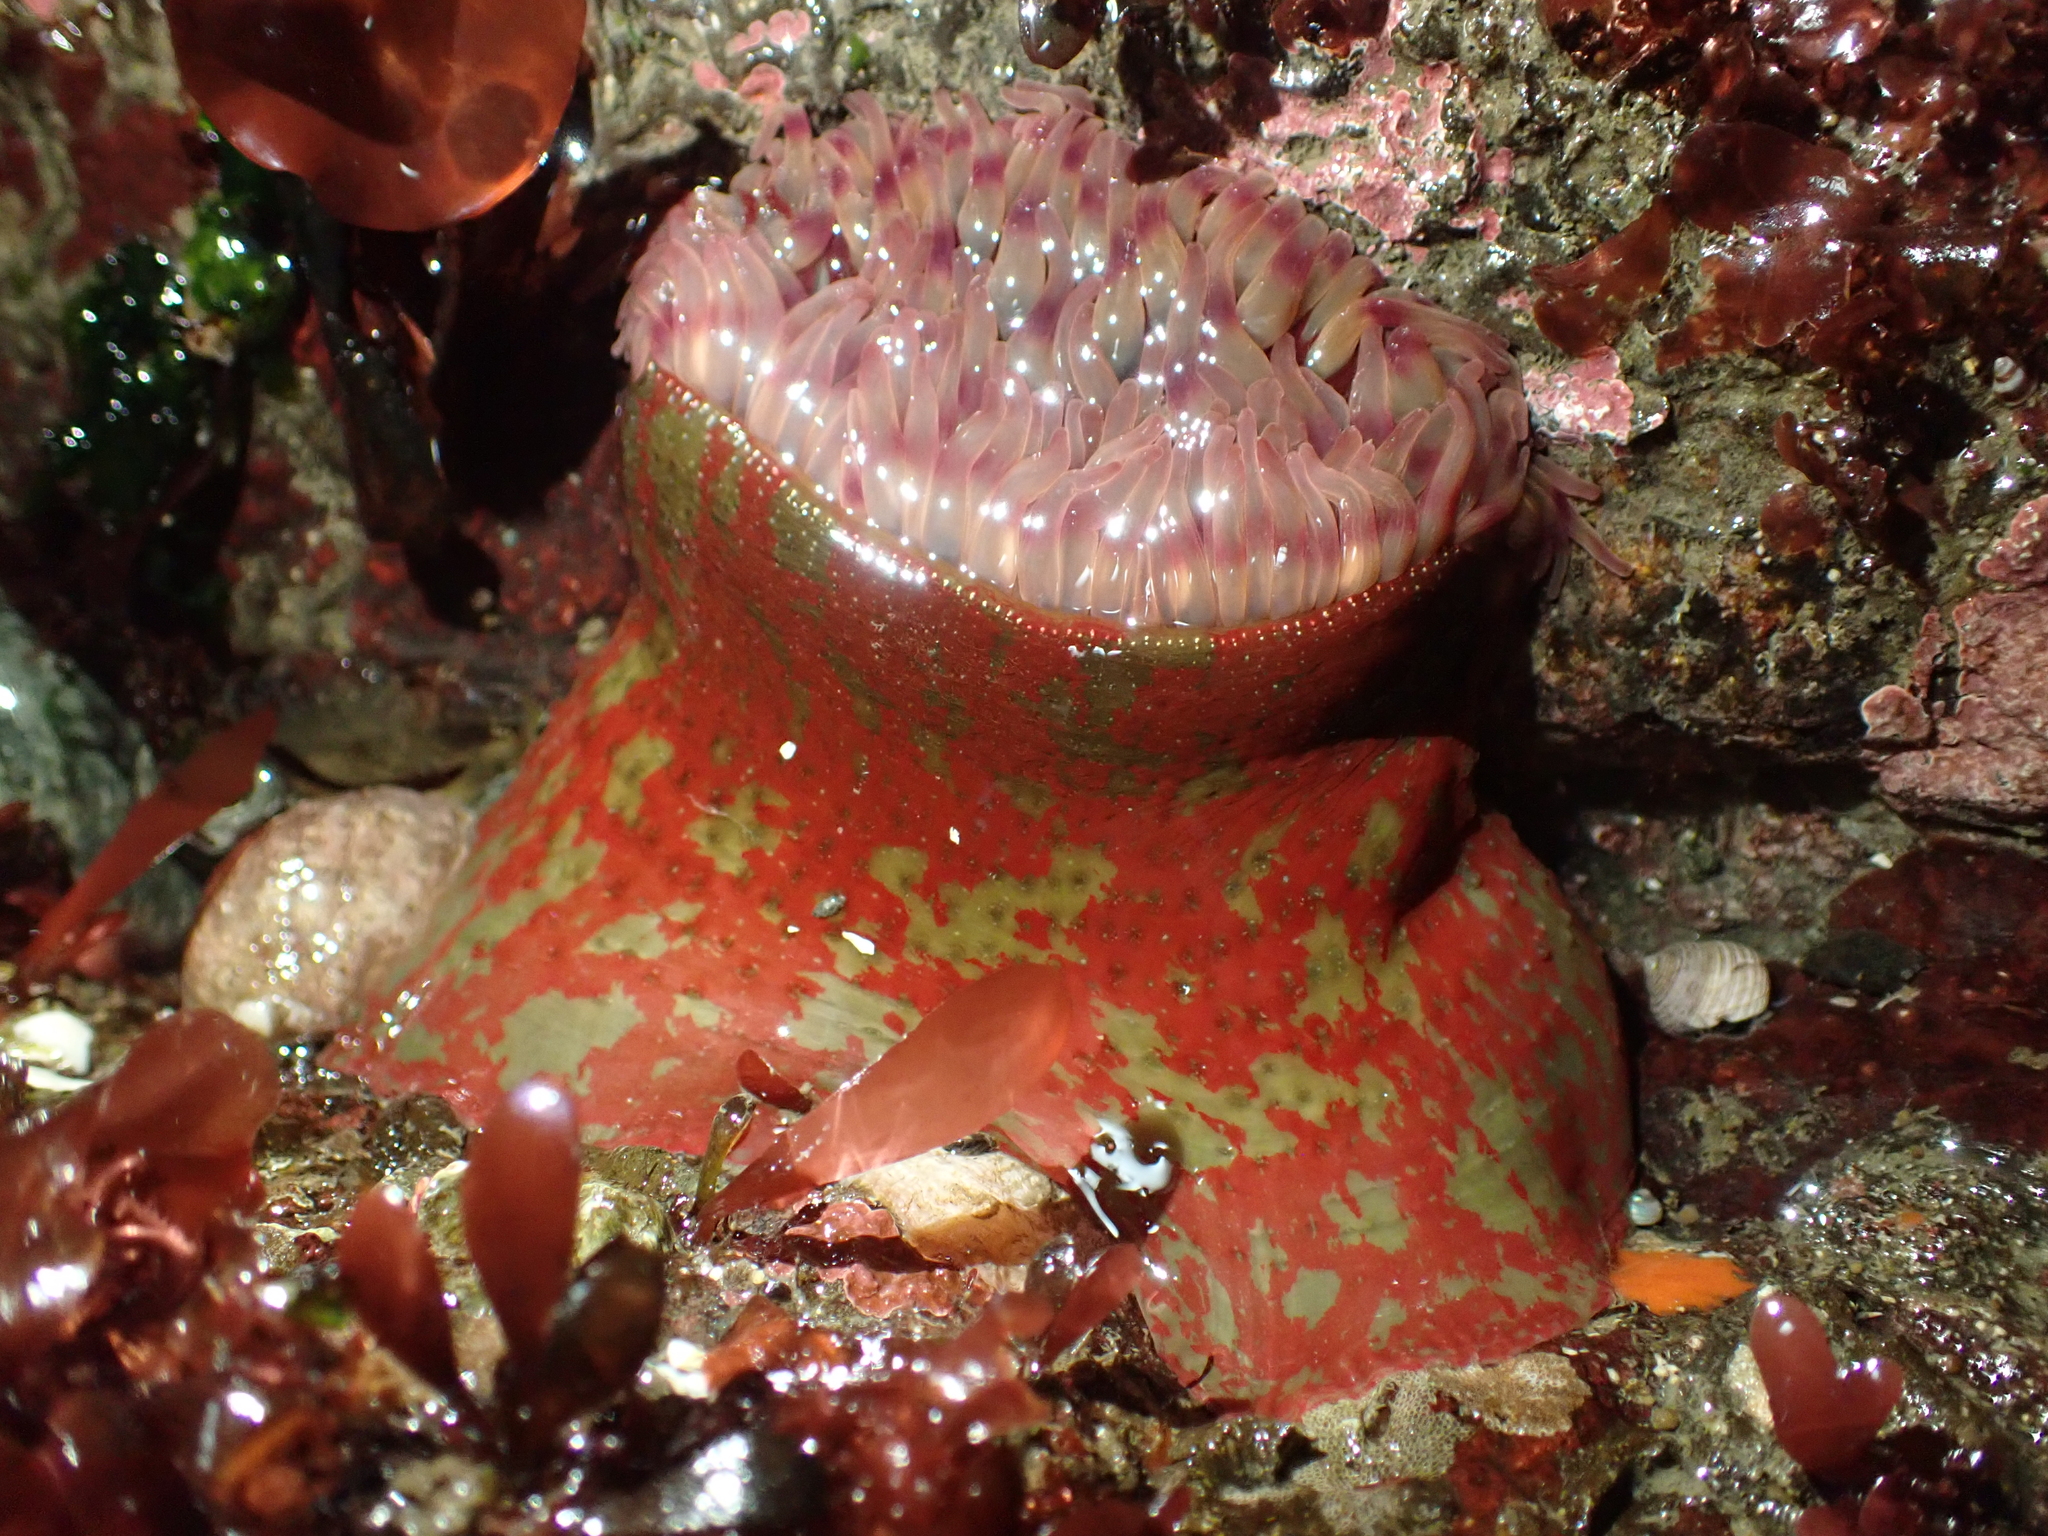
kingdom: Animalia
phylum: Cnidaria
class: Anthozoa
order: Actiniaria
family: Actiniidae
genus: Urticina
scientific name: Urticina grebelnyi
